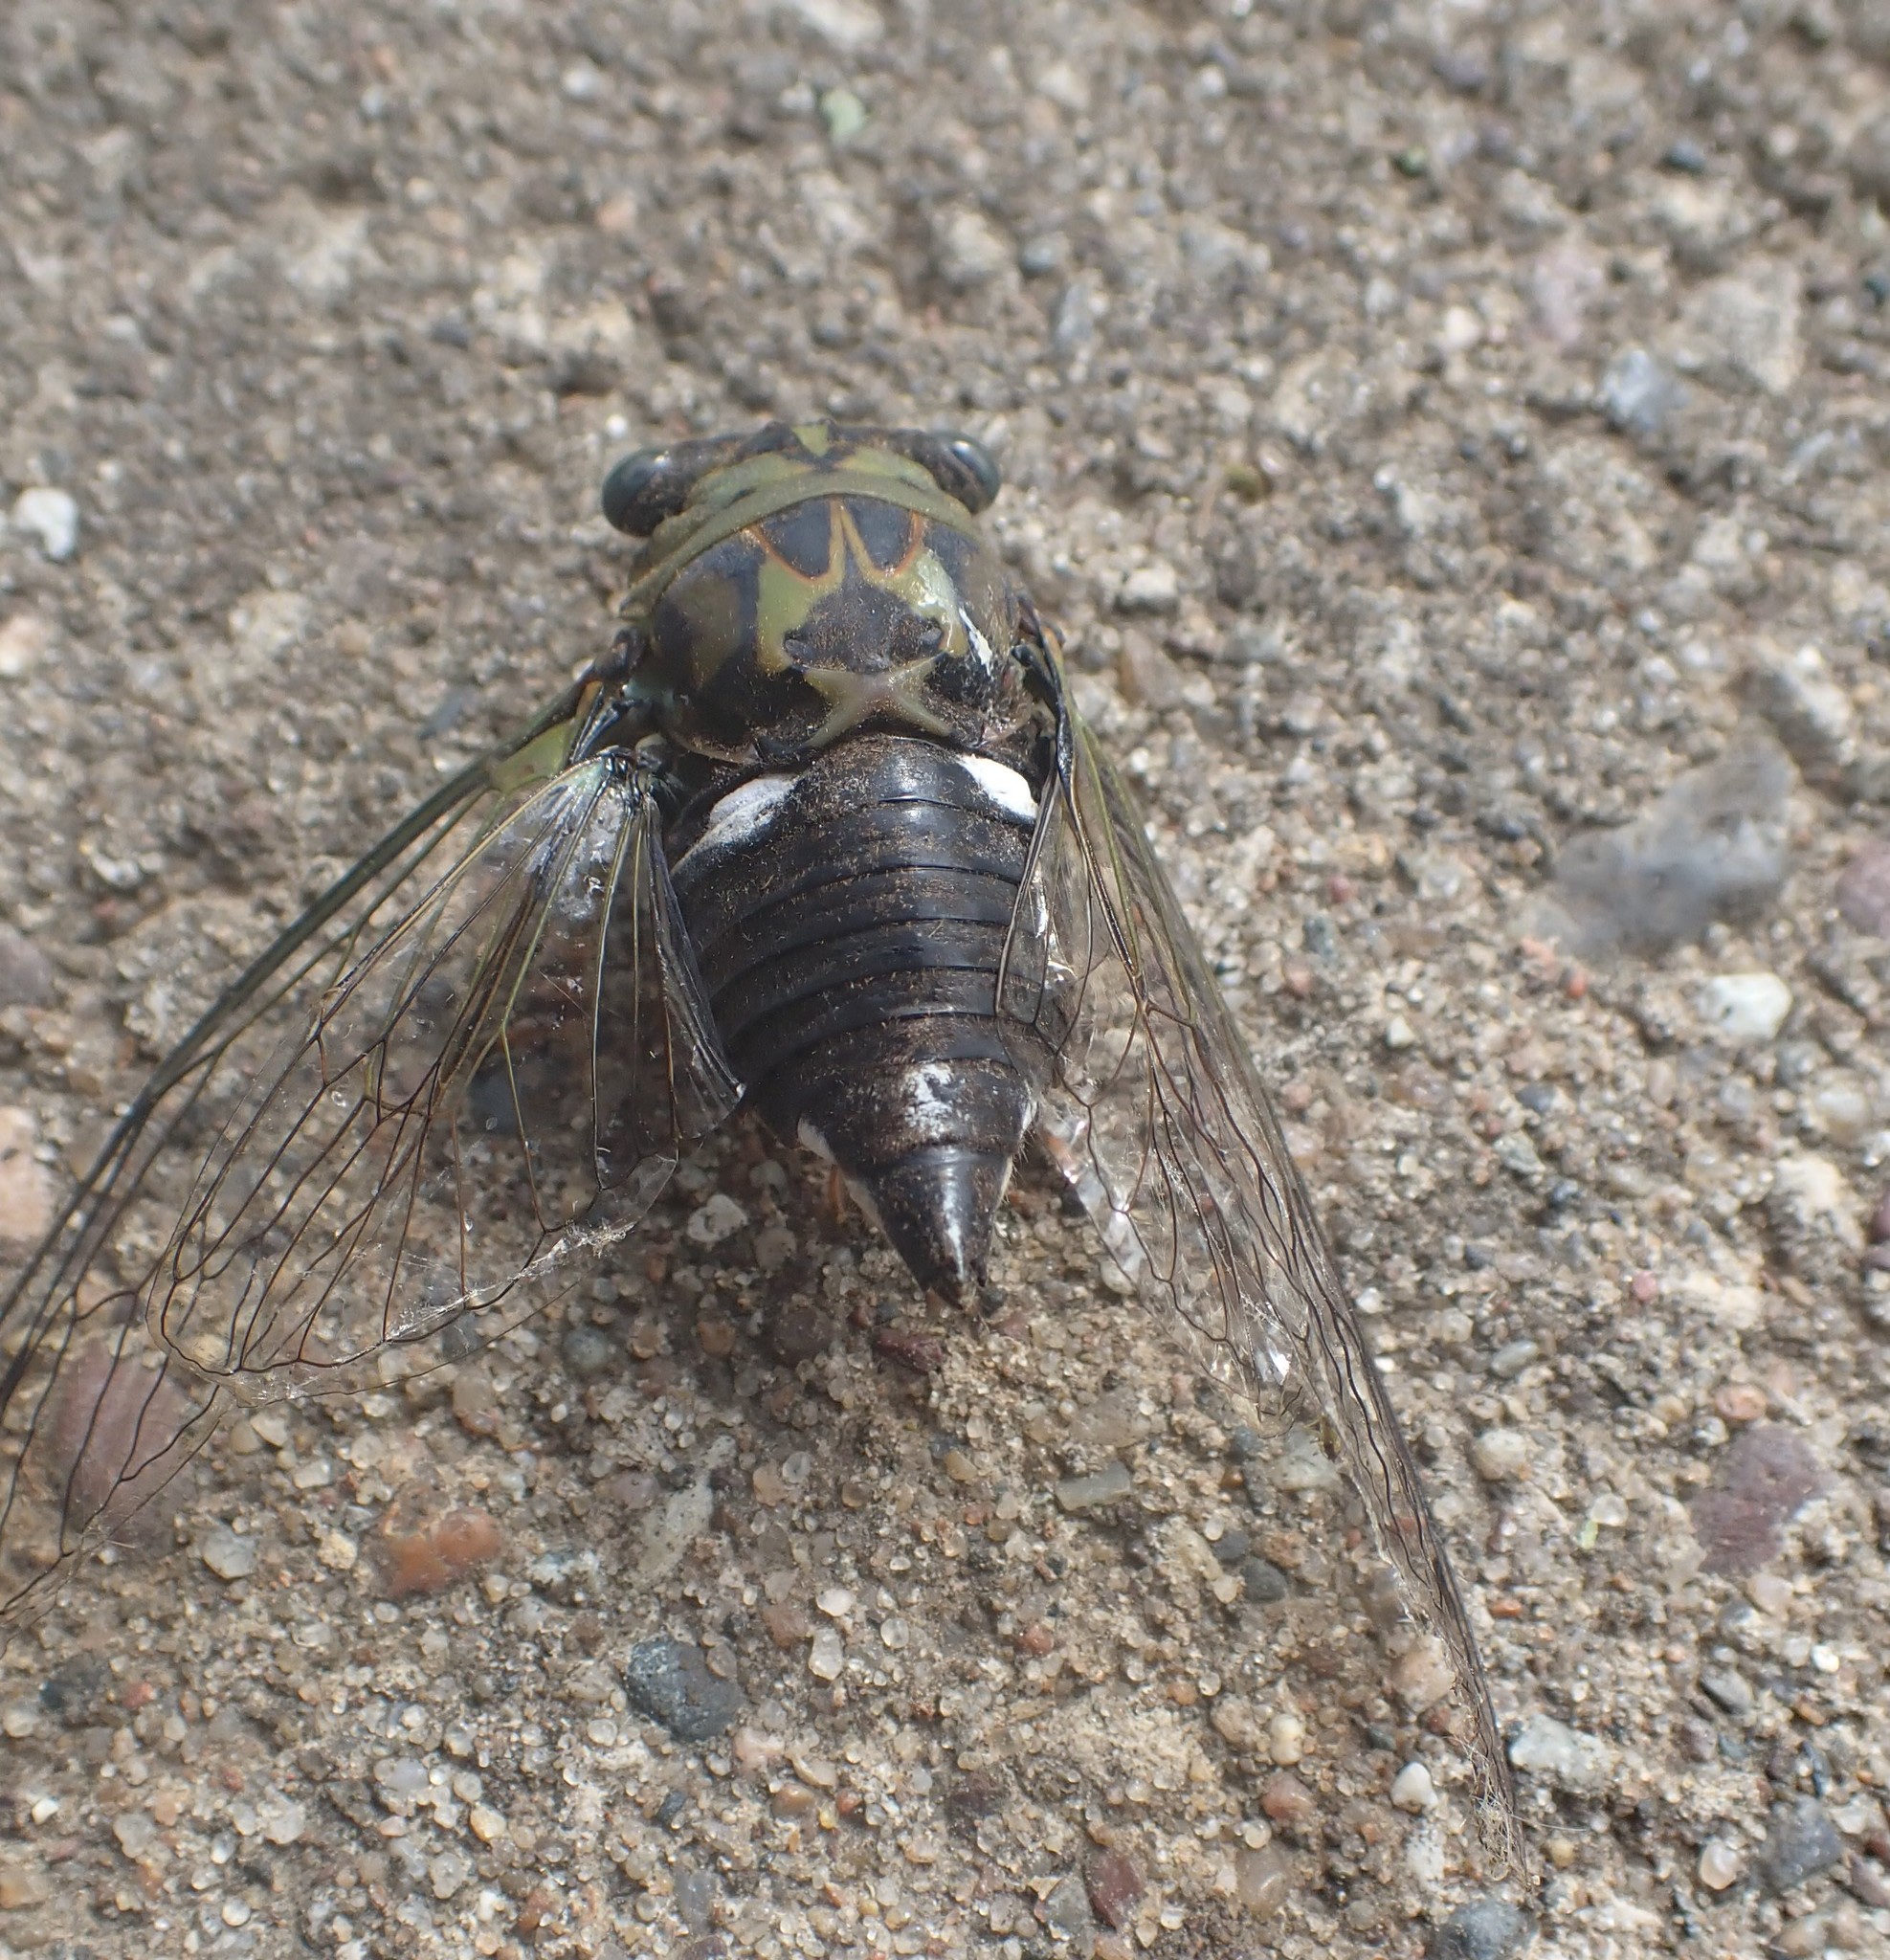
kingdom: Animalia
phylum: Arthropoda
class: Insecta
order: Hemiptera
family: Cicadidae
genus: Neotibicen
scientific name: Neotibicen pruinosus
